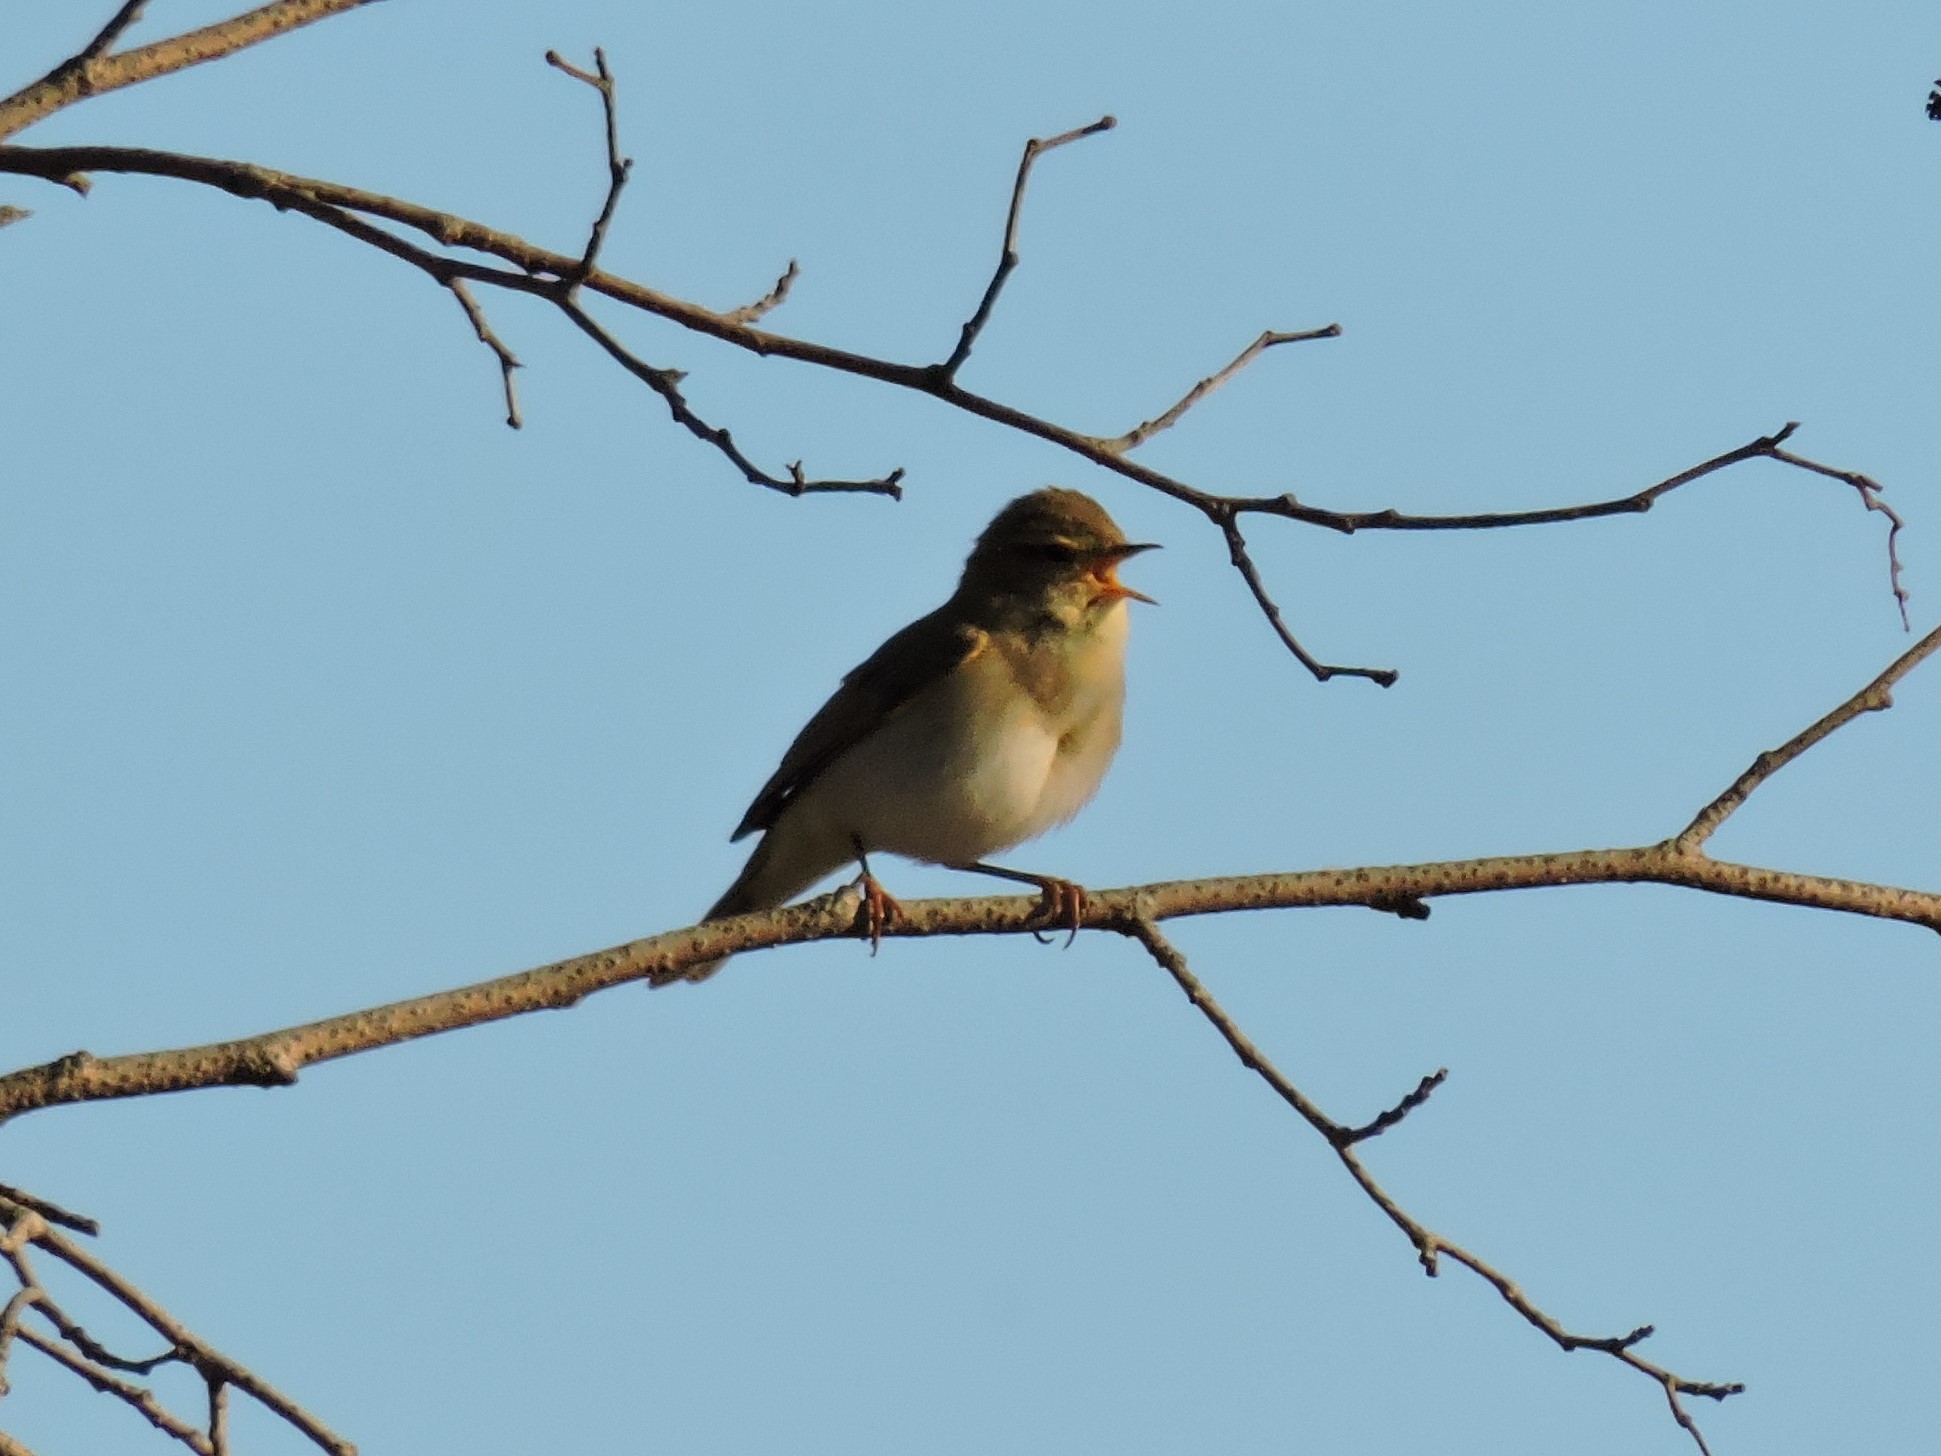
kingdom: Animalia
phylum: Chordata
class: Aves
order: Passeriformes
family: Phylloscopidae
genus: Phylloscopus
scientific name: Phylloscopus trochilus
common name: Willow warbler
